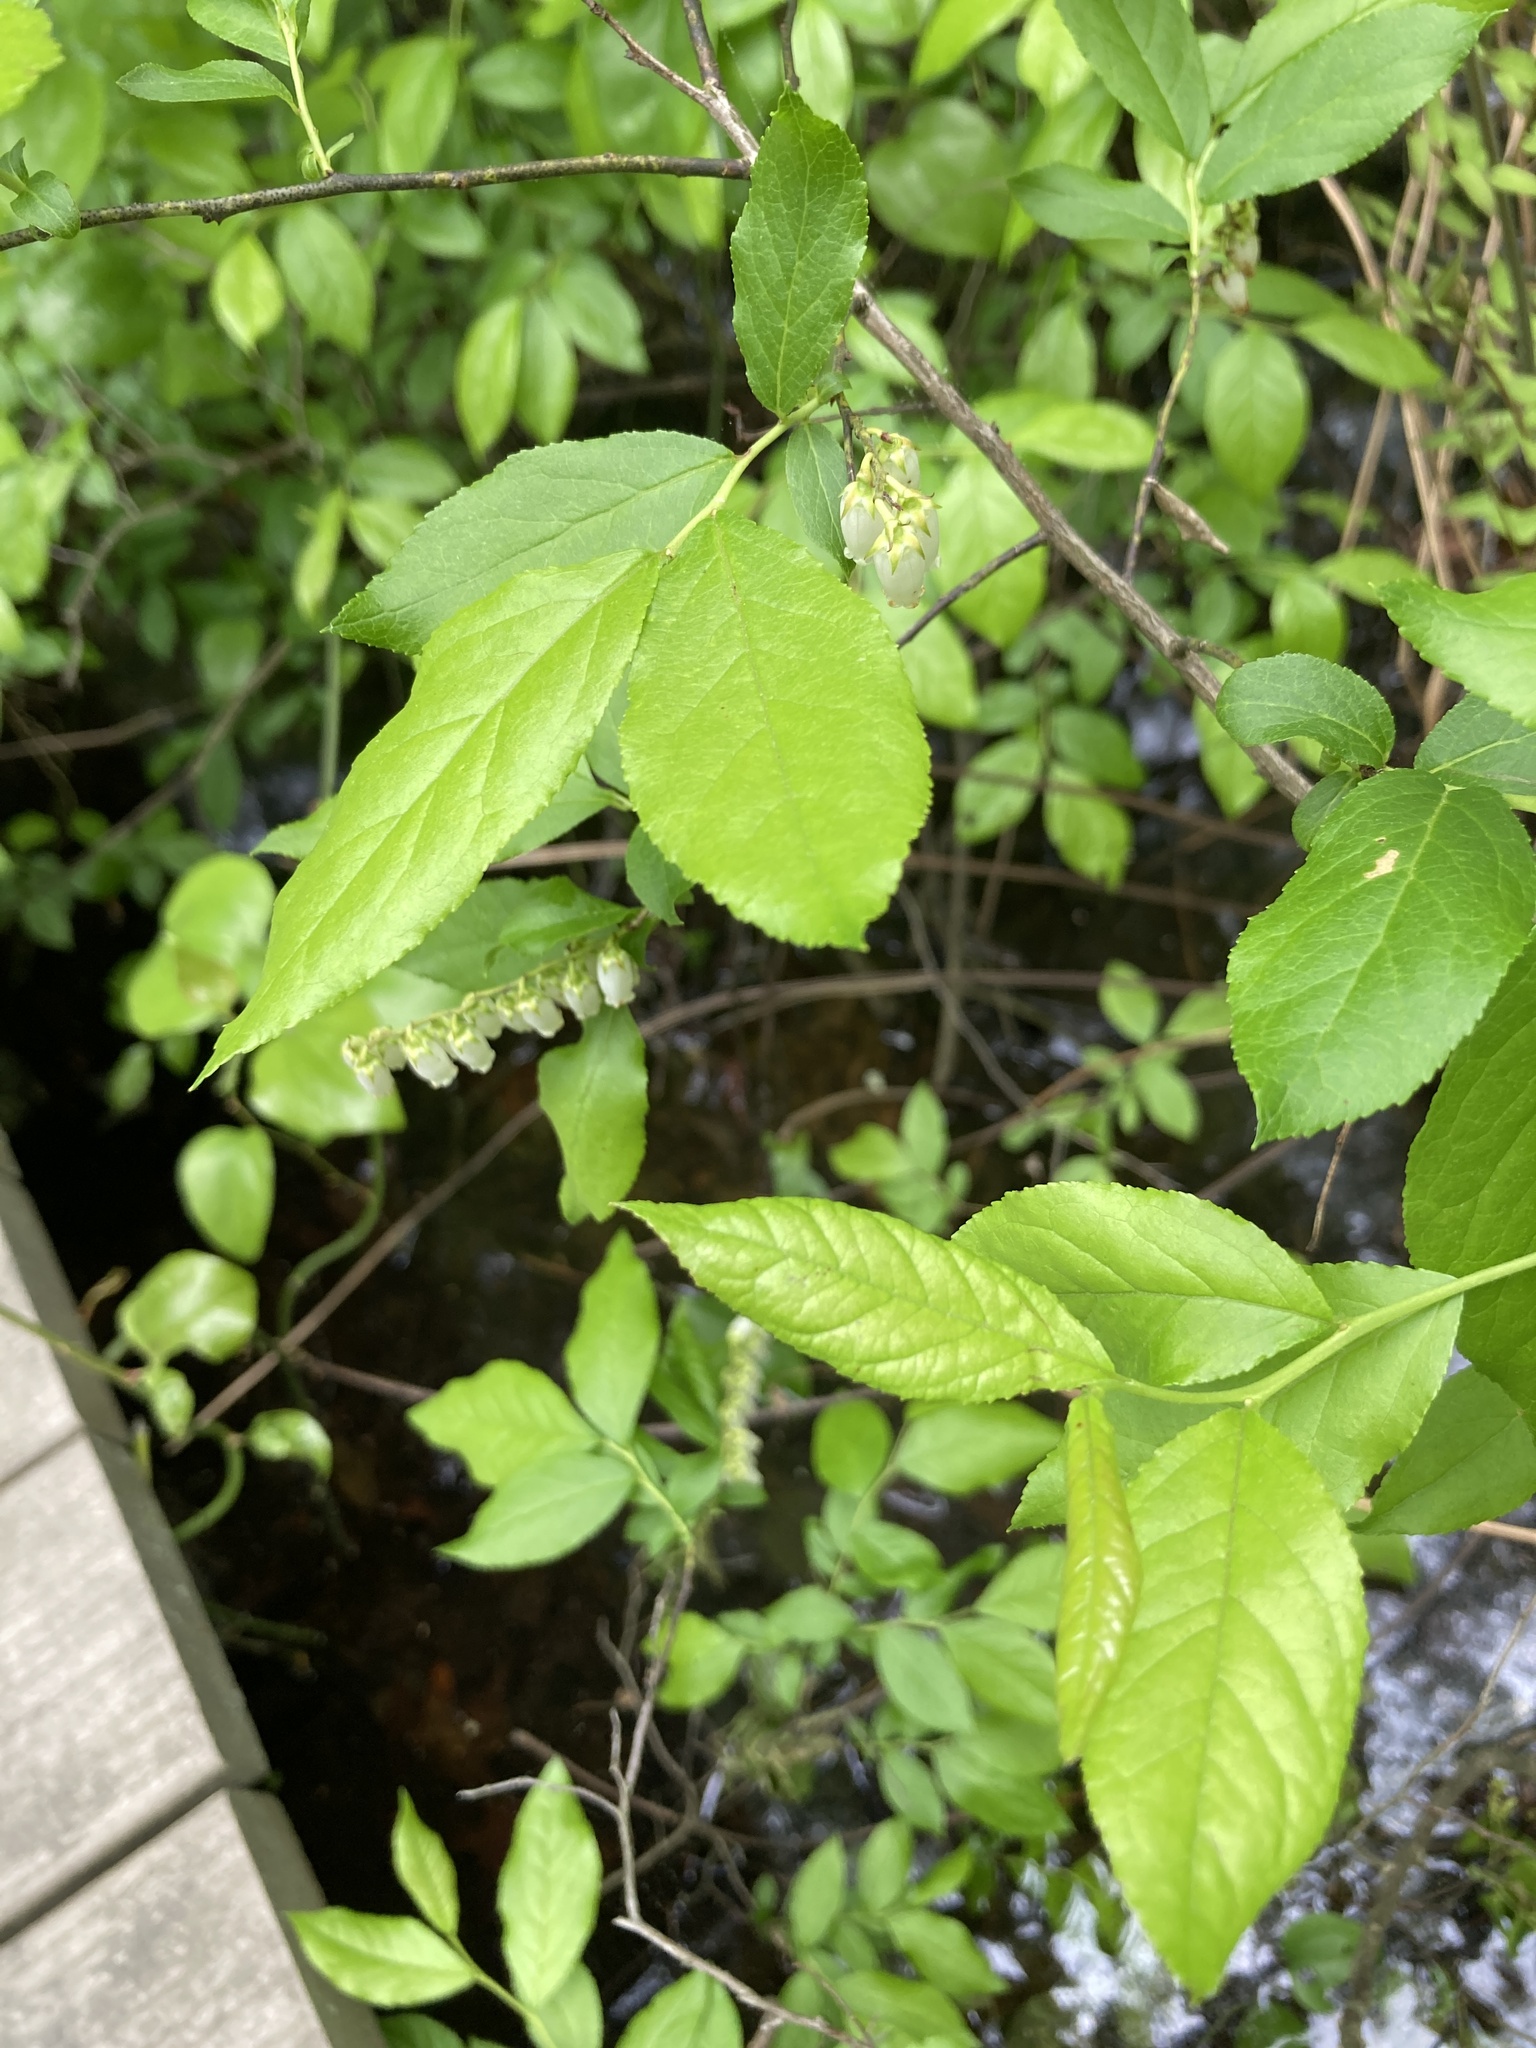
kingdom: Plantae
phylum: Tracheophyta
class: Magnoliopsida
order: Ericales
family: Ericaceae
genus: Eubotrys
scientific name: Eubotrys racemosa
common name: Fetterbush
